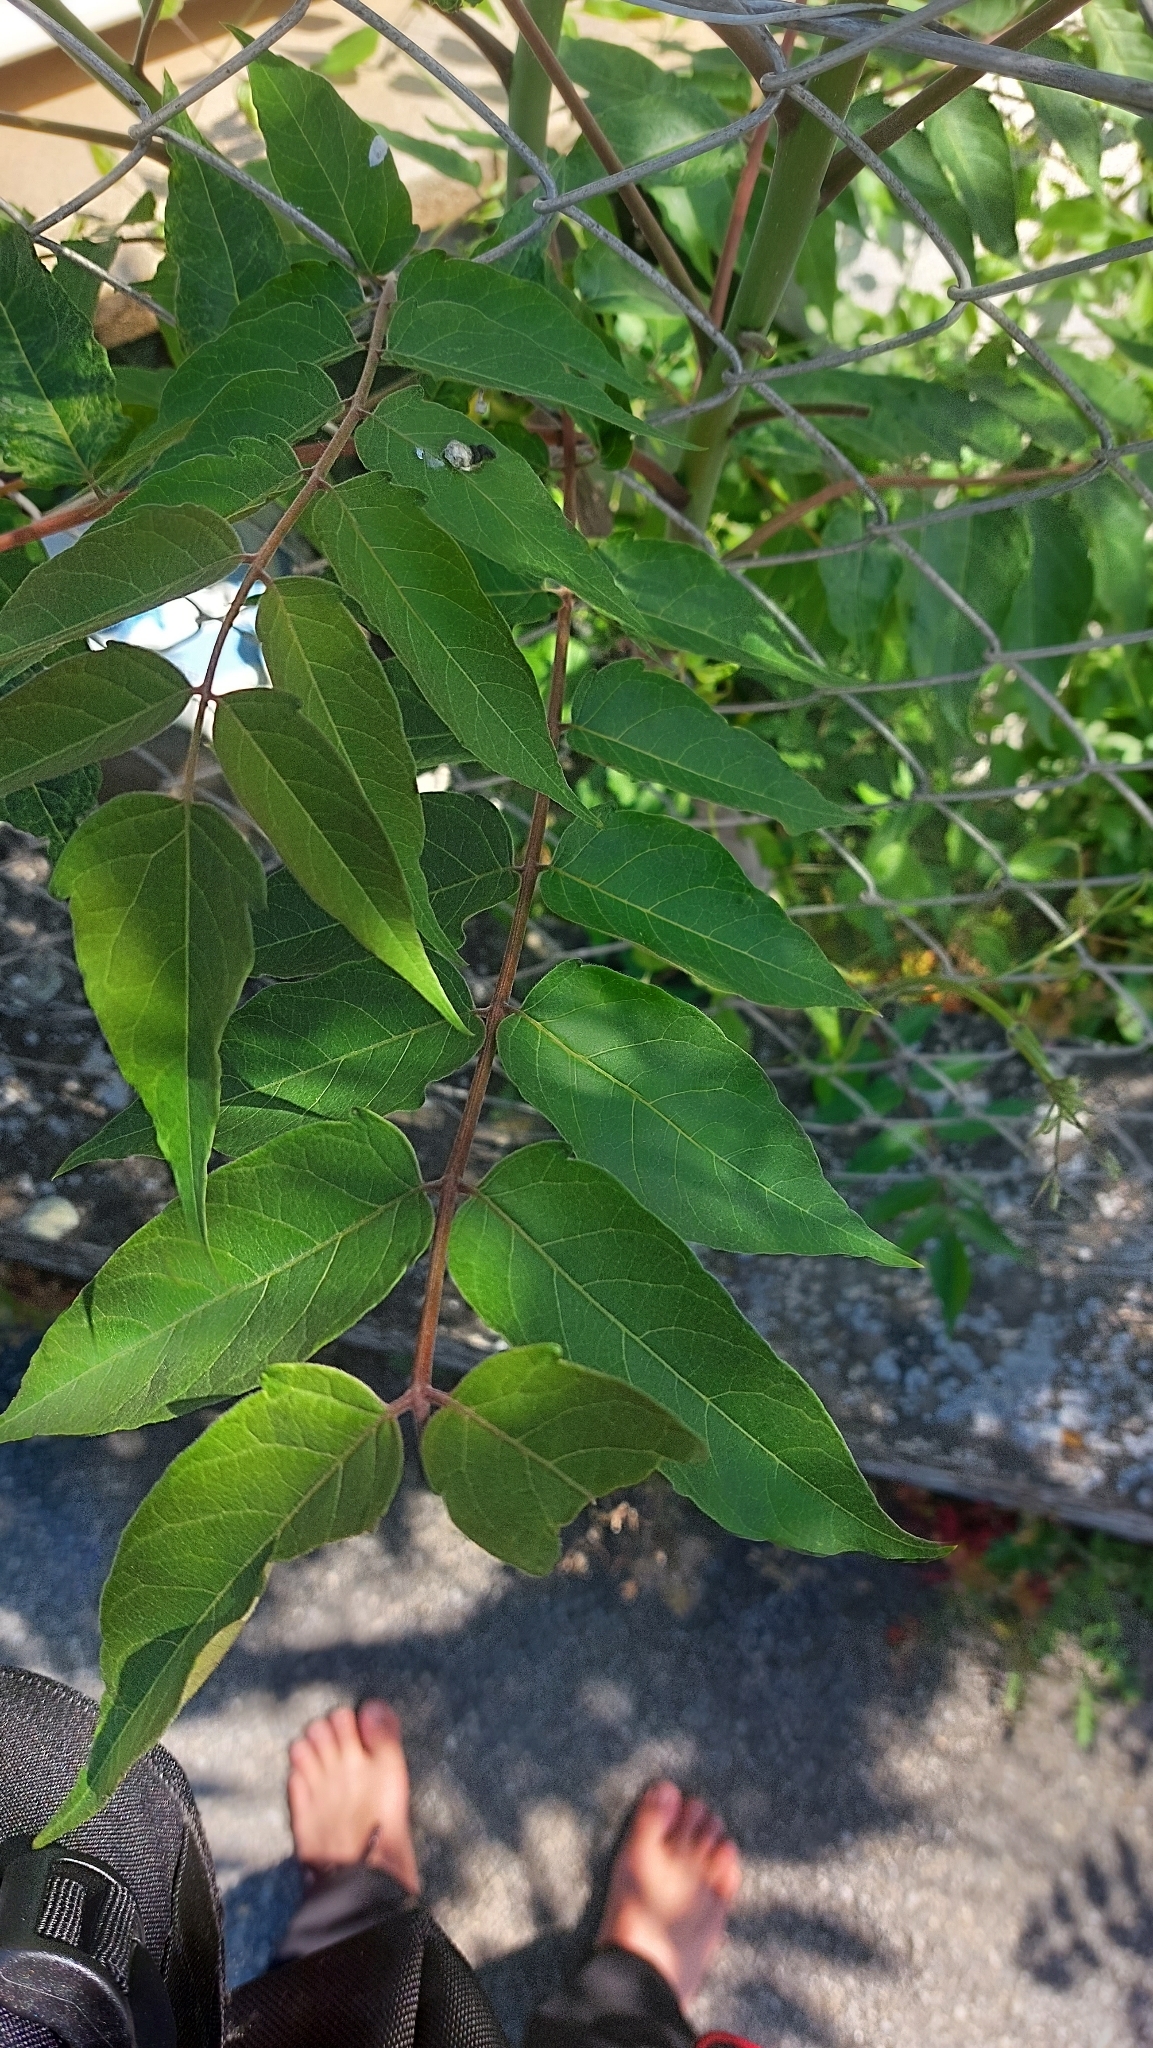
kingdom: Plantae
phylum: Tracheophyta
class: Magnoliopsida
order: Sapindales
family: Simaroubaceae
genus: Ailanthus
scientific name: Ailanthus altissima
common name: Tree-of-heaven
